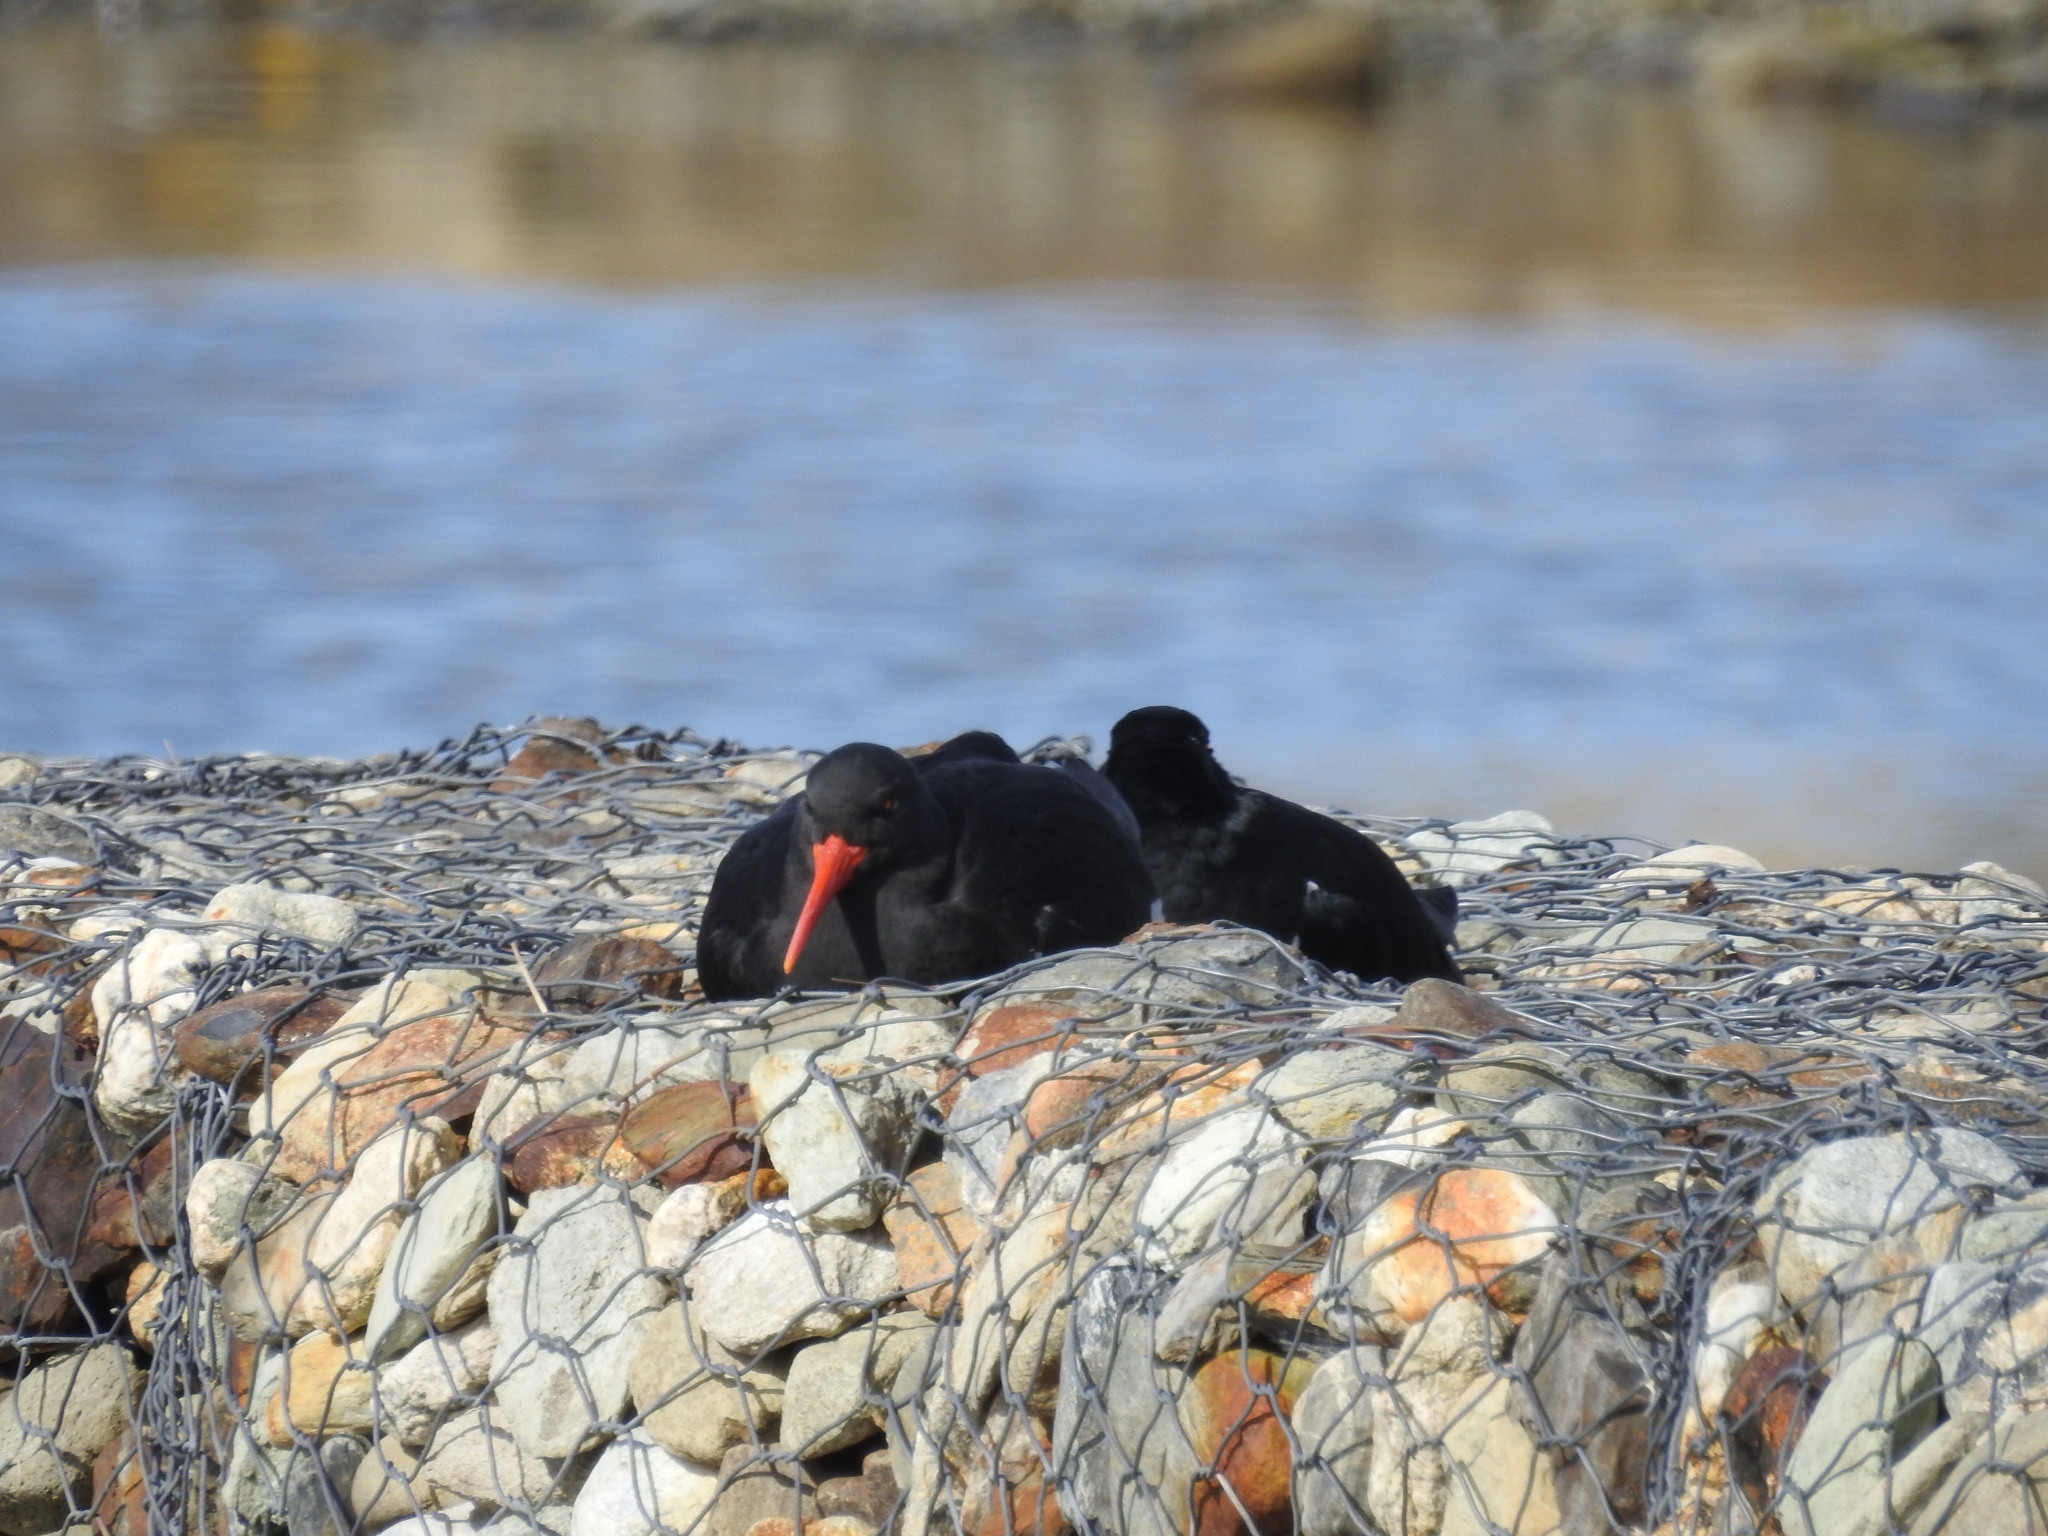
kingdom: Animalia
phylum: Chordata
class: Aves
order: Charadriiformes
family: Haematopodidae
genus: Haematopus
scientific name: Haematopus leucopodus
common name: Magellanic oystercatcher
